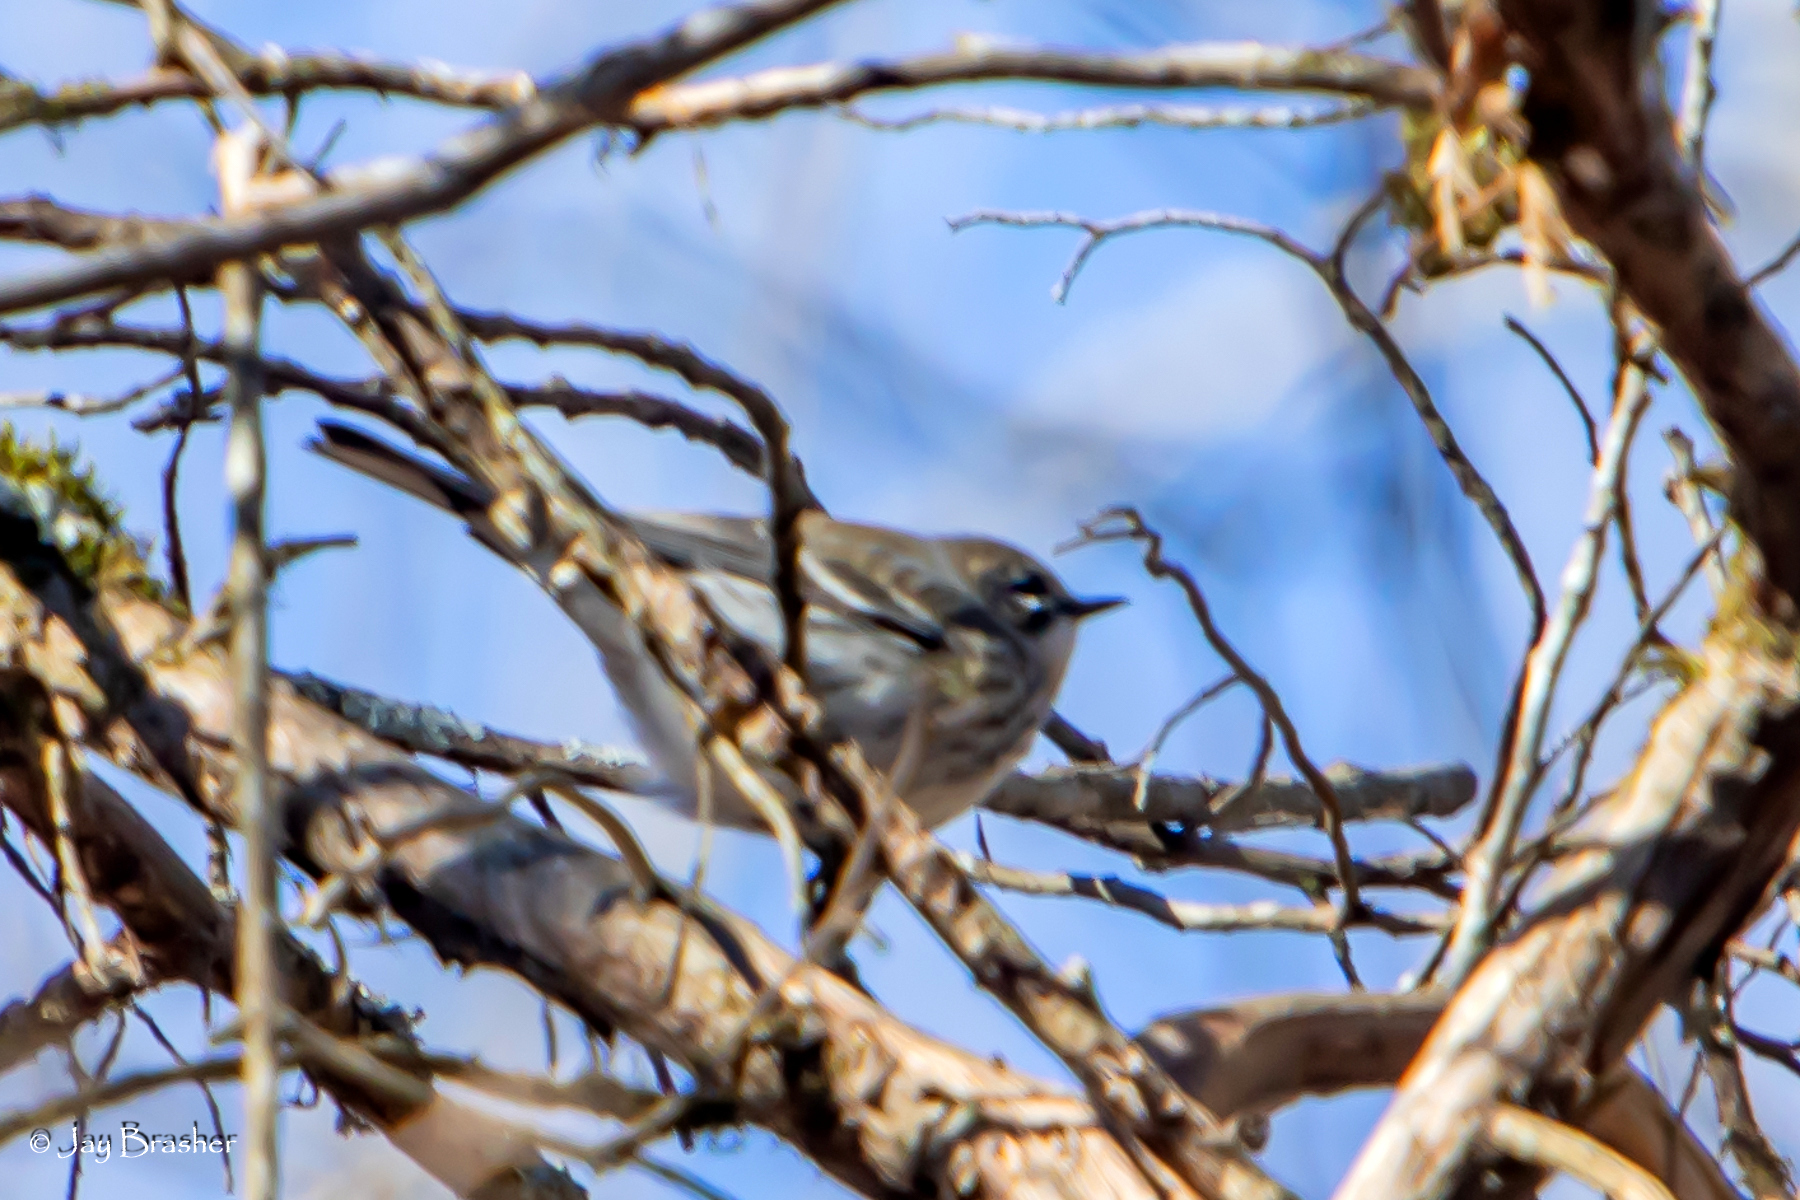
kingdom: Animalia
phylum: Chordata
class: Aves
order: Passeriformes
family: Parulidae
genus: Setophaga
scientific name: Setophaga coronata
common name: Myrtle warbler
